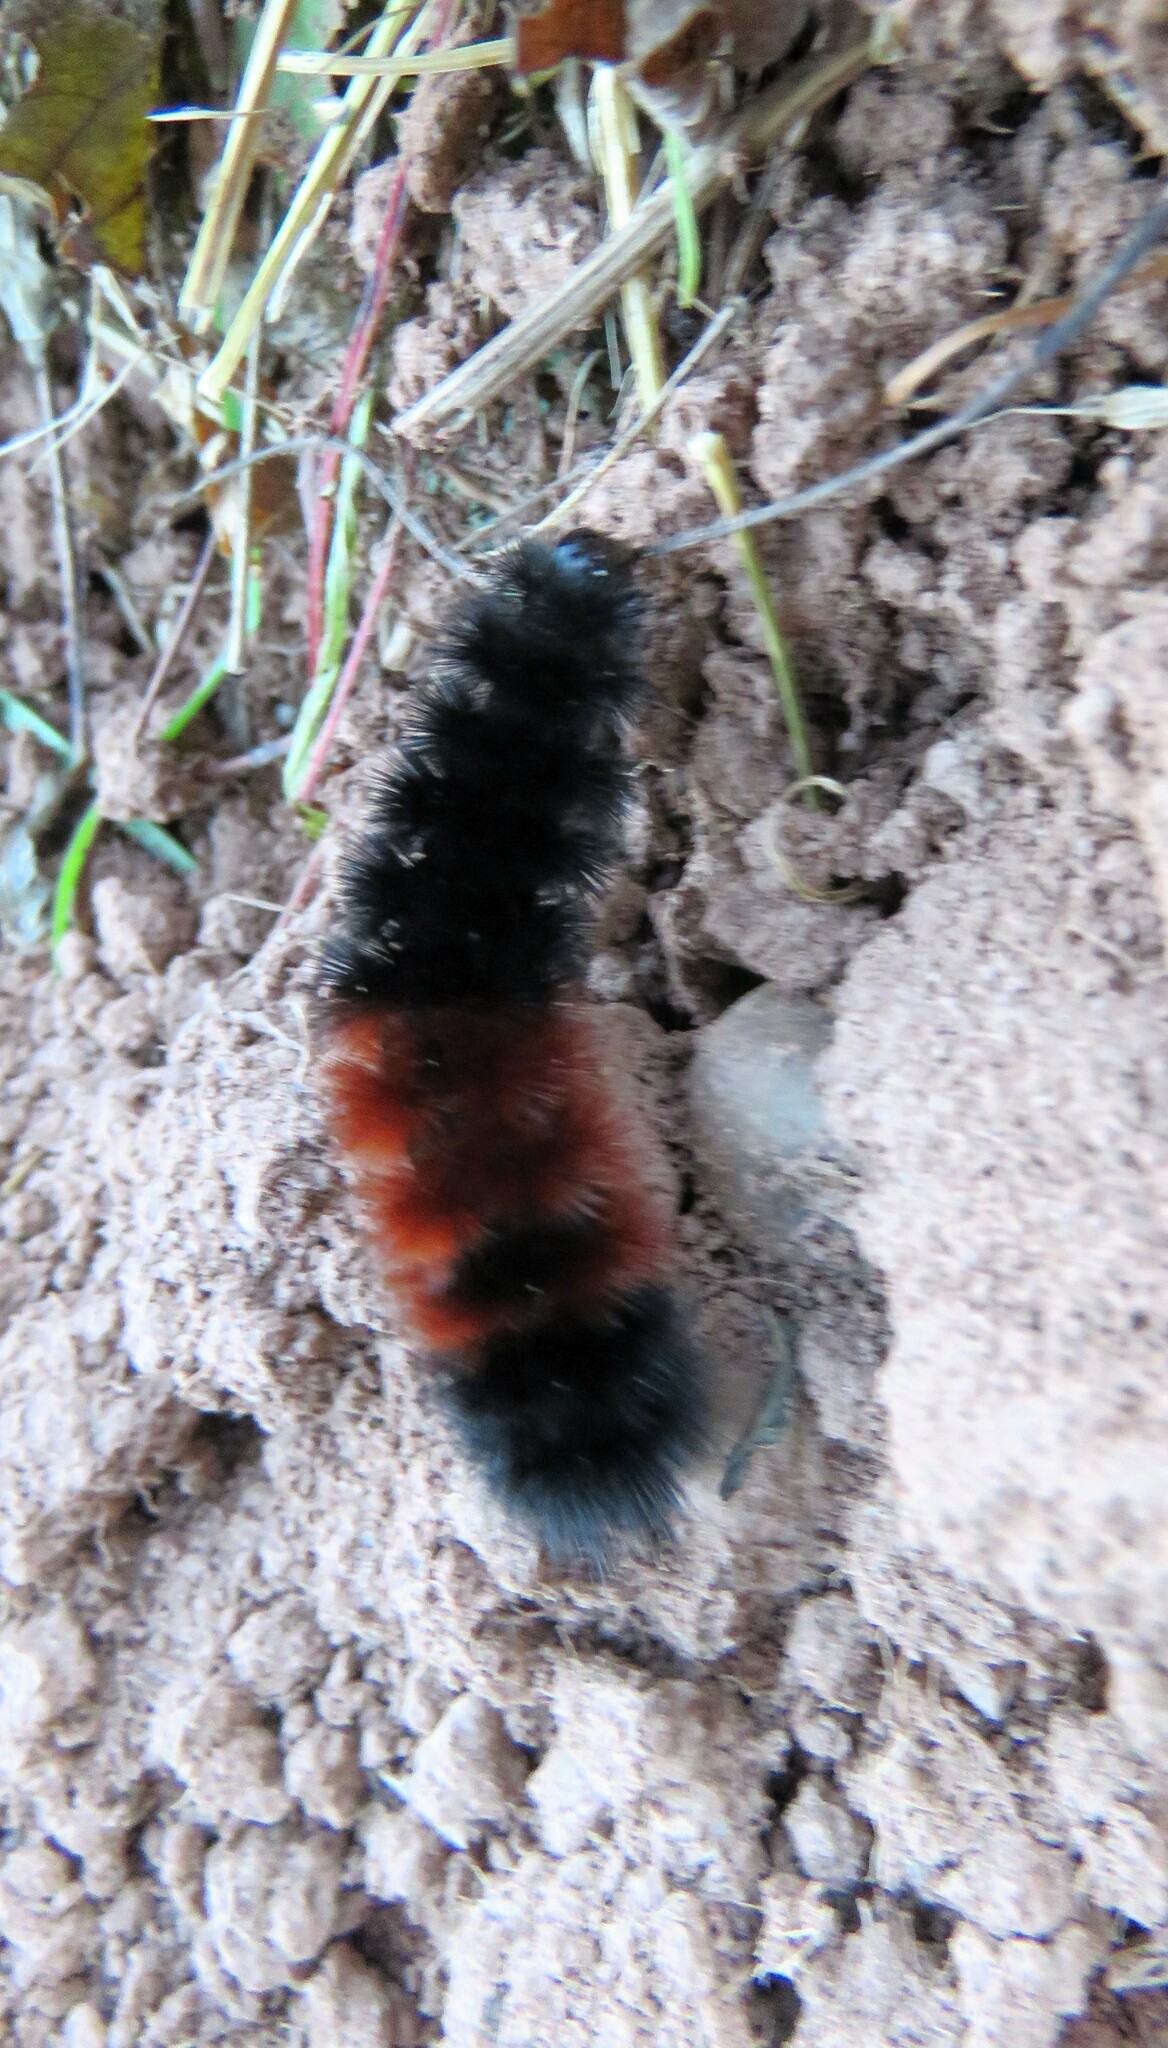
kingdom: Animalia
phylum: Arthropoda
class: Insecta
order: Lepidoptera
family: Erebidae
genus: Pyrrharctia
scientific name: Pyrrharctia isabella
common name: Isabella tiger moth
